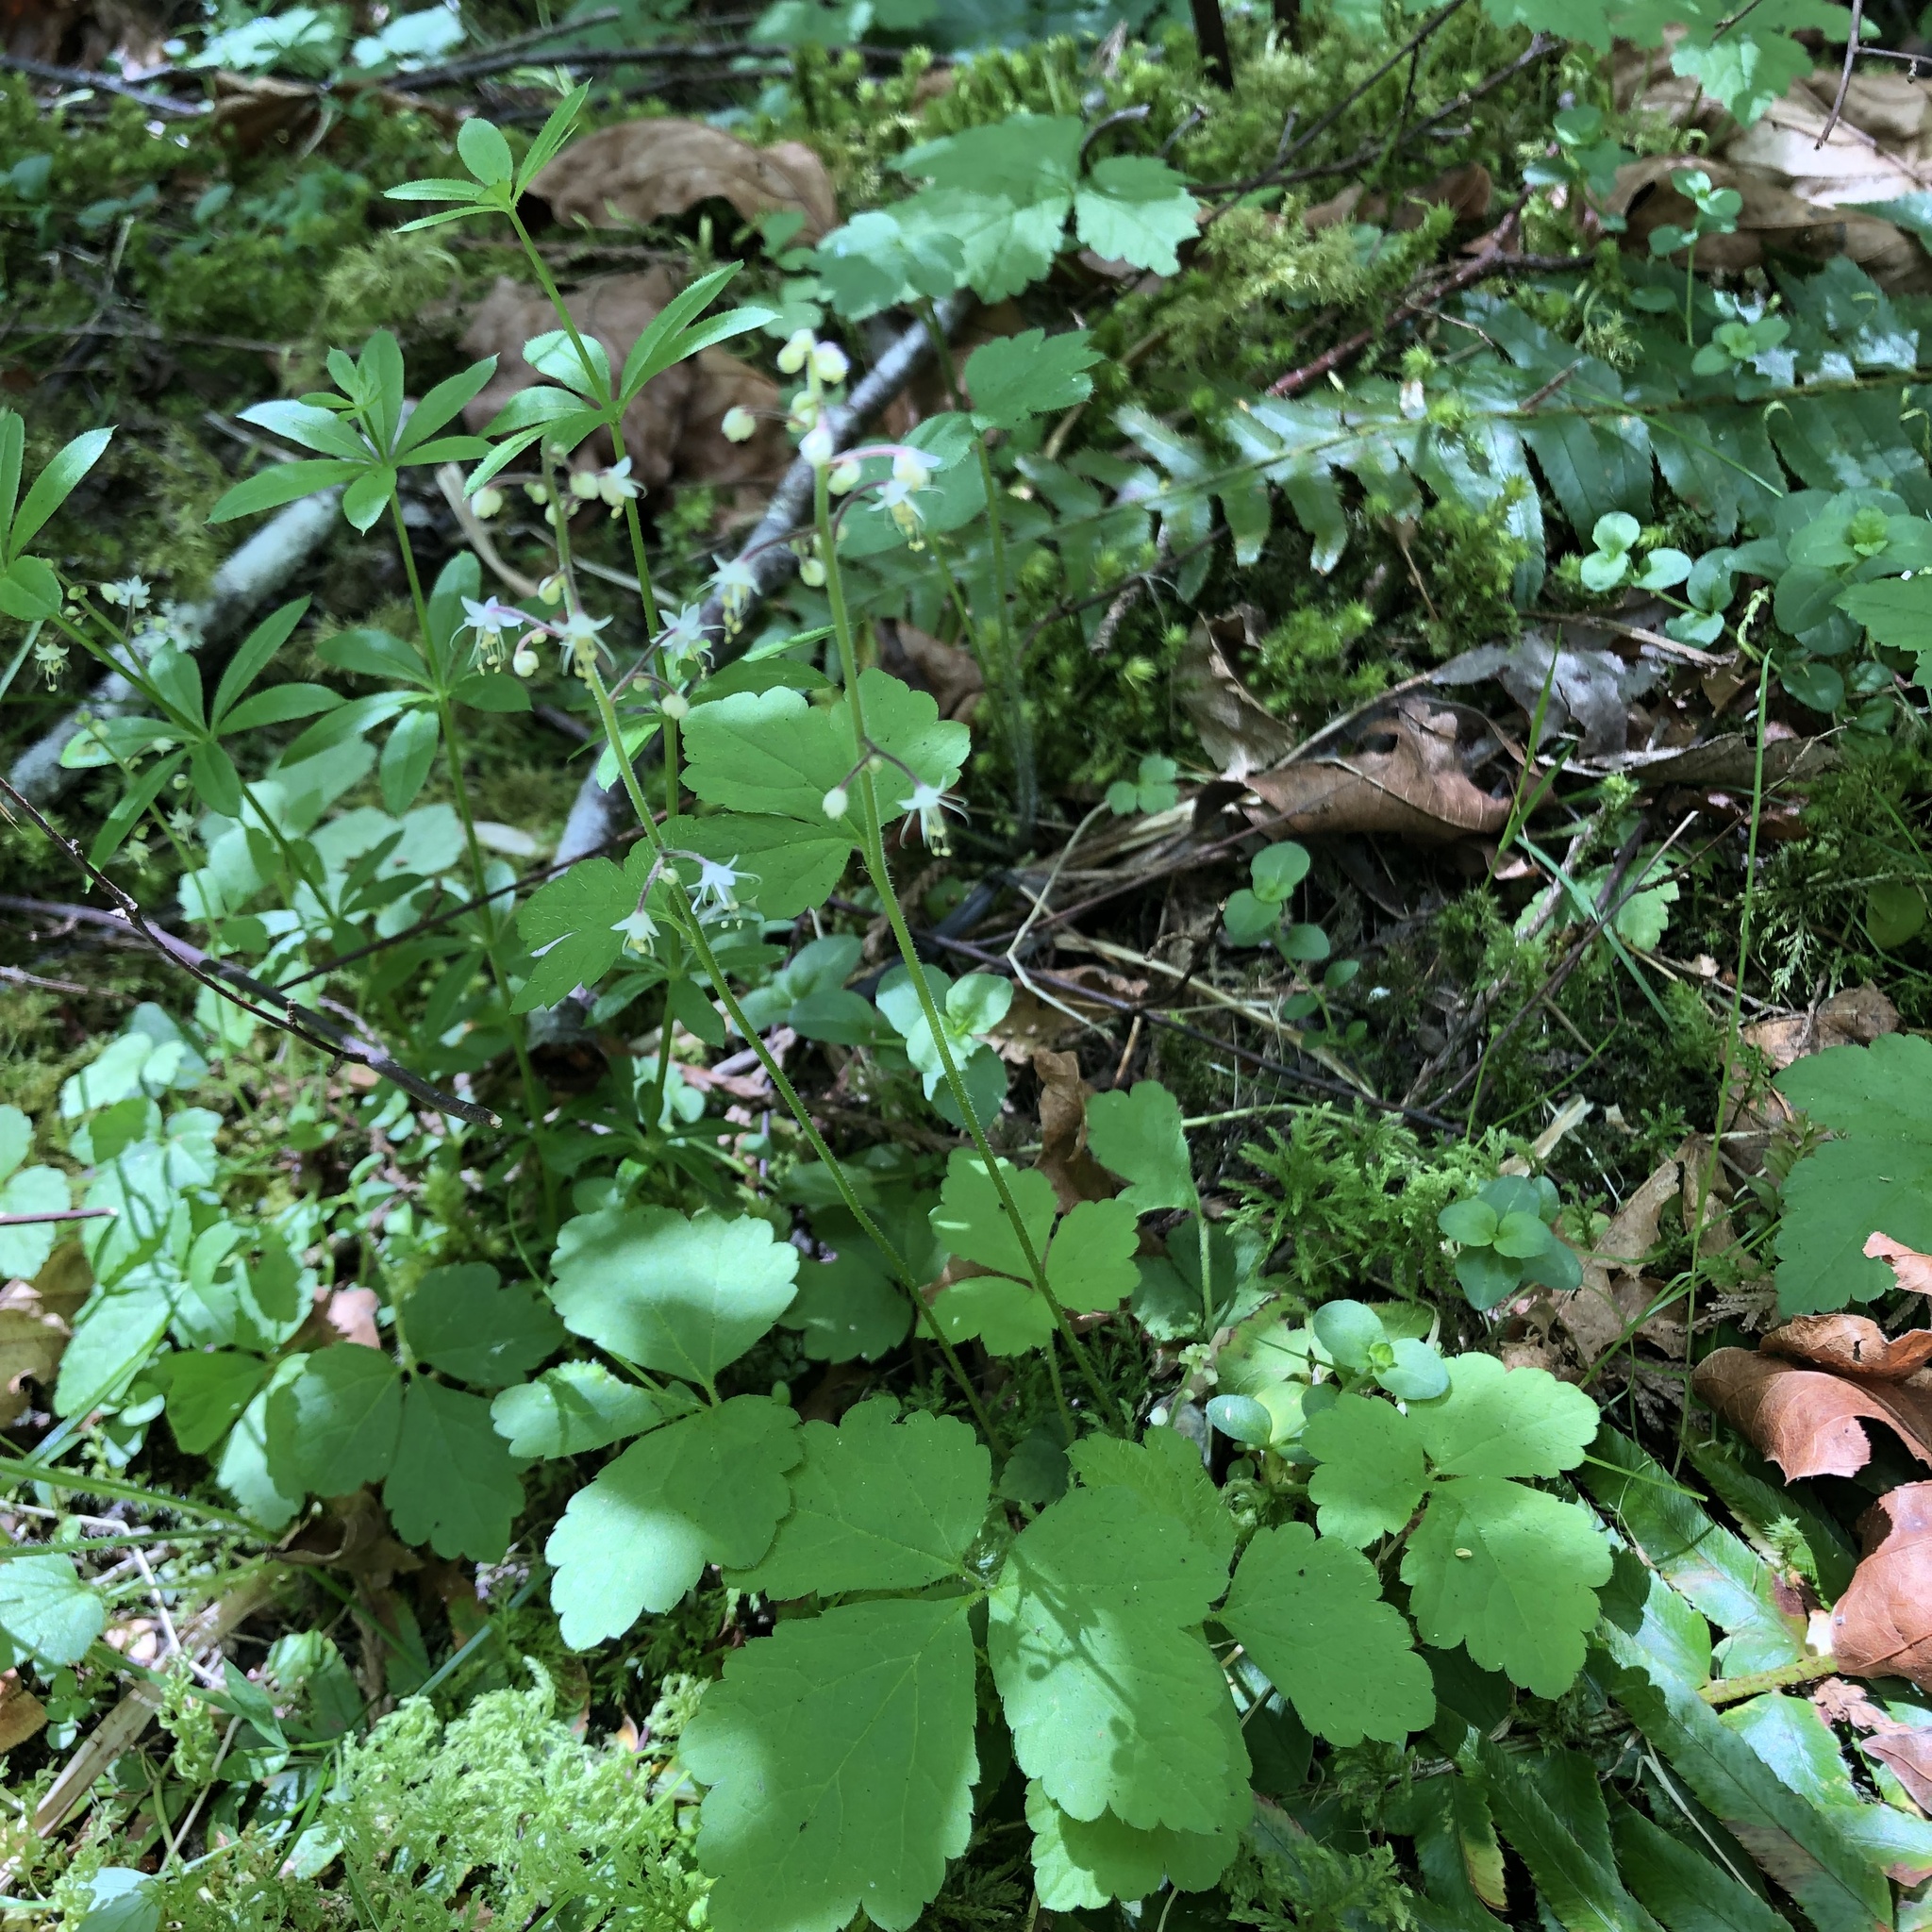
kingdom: Plantae
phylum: Tracheophyta
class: Magnoliopsida
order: Saxifragales
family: Saxifragaceae
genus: Tiarella
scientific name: Tiarella trifoliata
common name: Sugar-scoop
